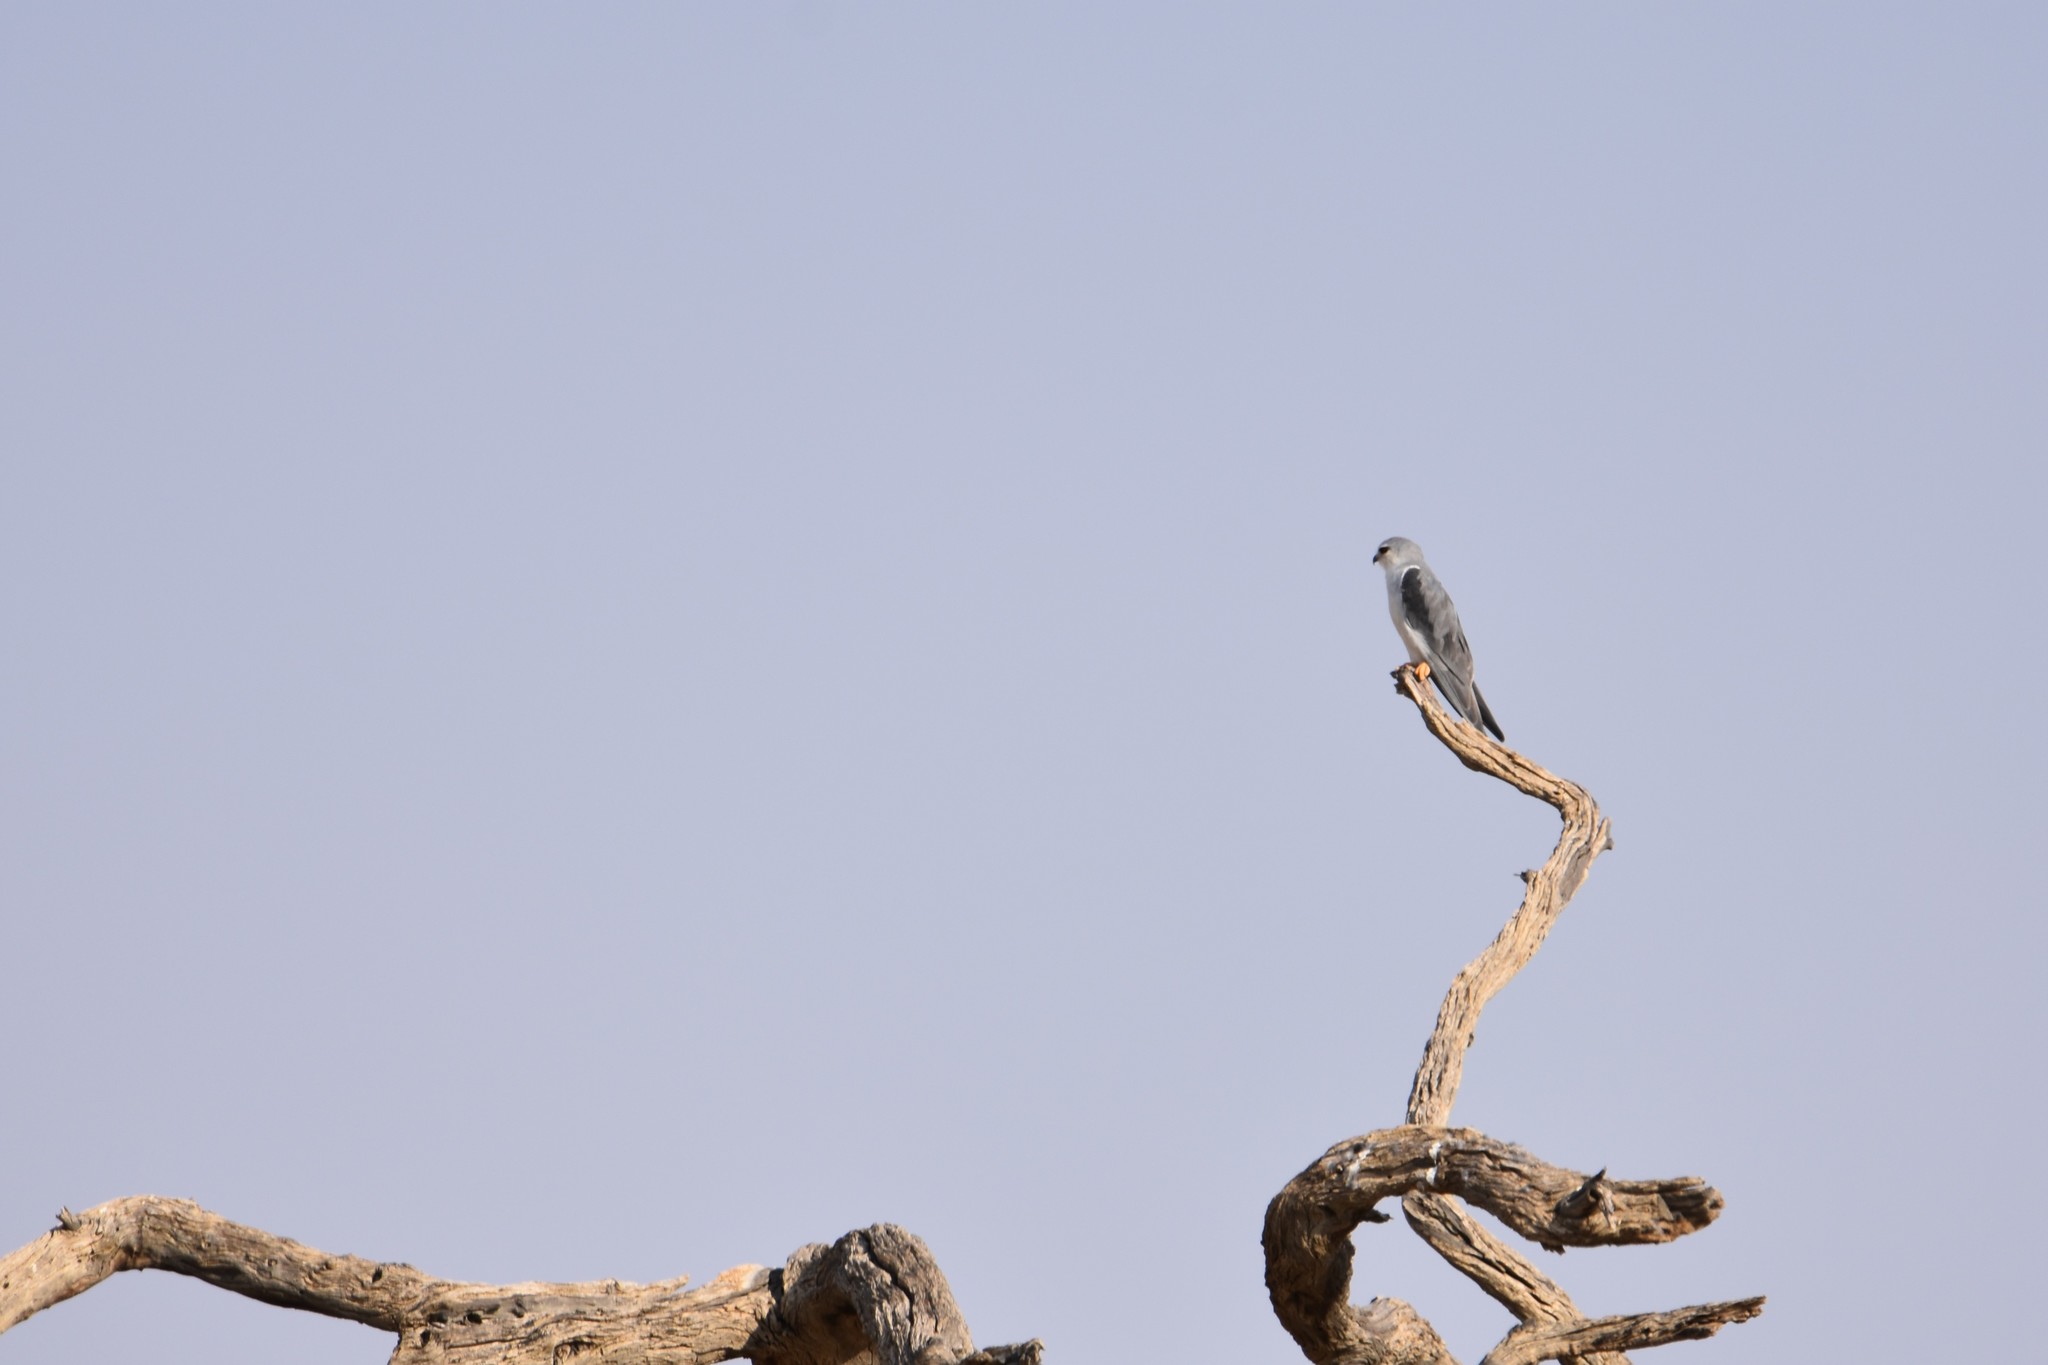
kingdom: Animalia
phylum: Chordata
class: Aves
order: Accipitriformes
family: Accipitridae
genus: Elanus
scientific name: Elanus caeruleus
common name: Black-winged kite
